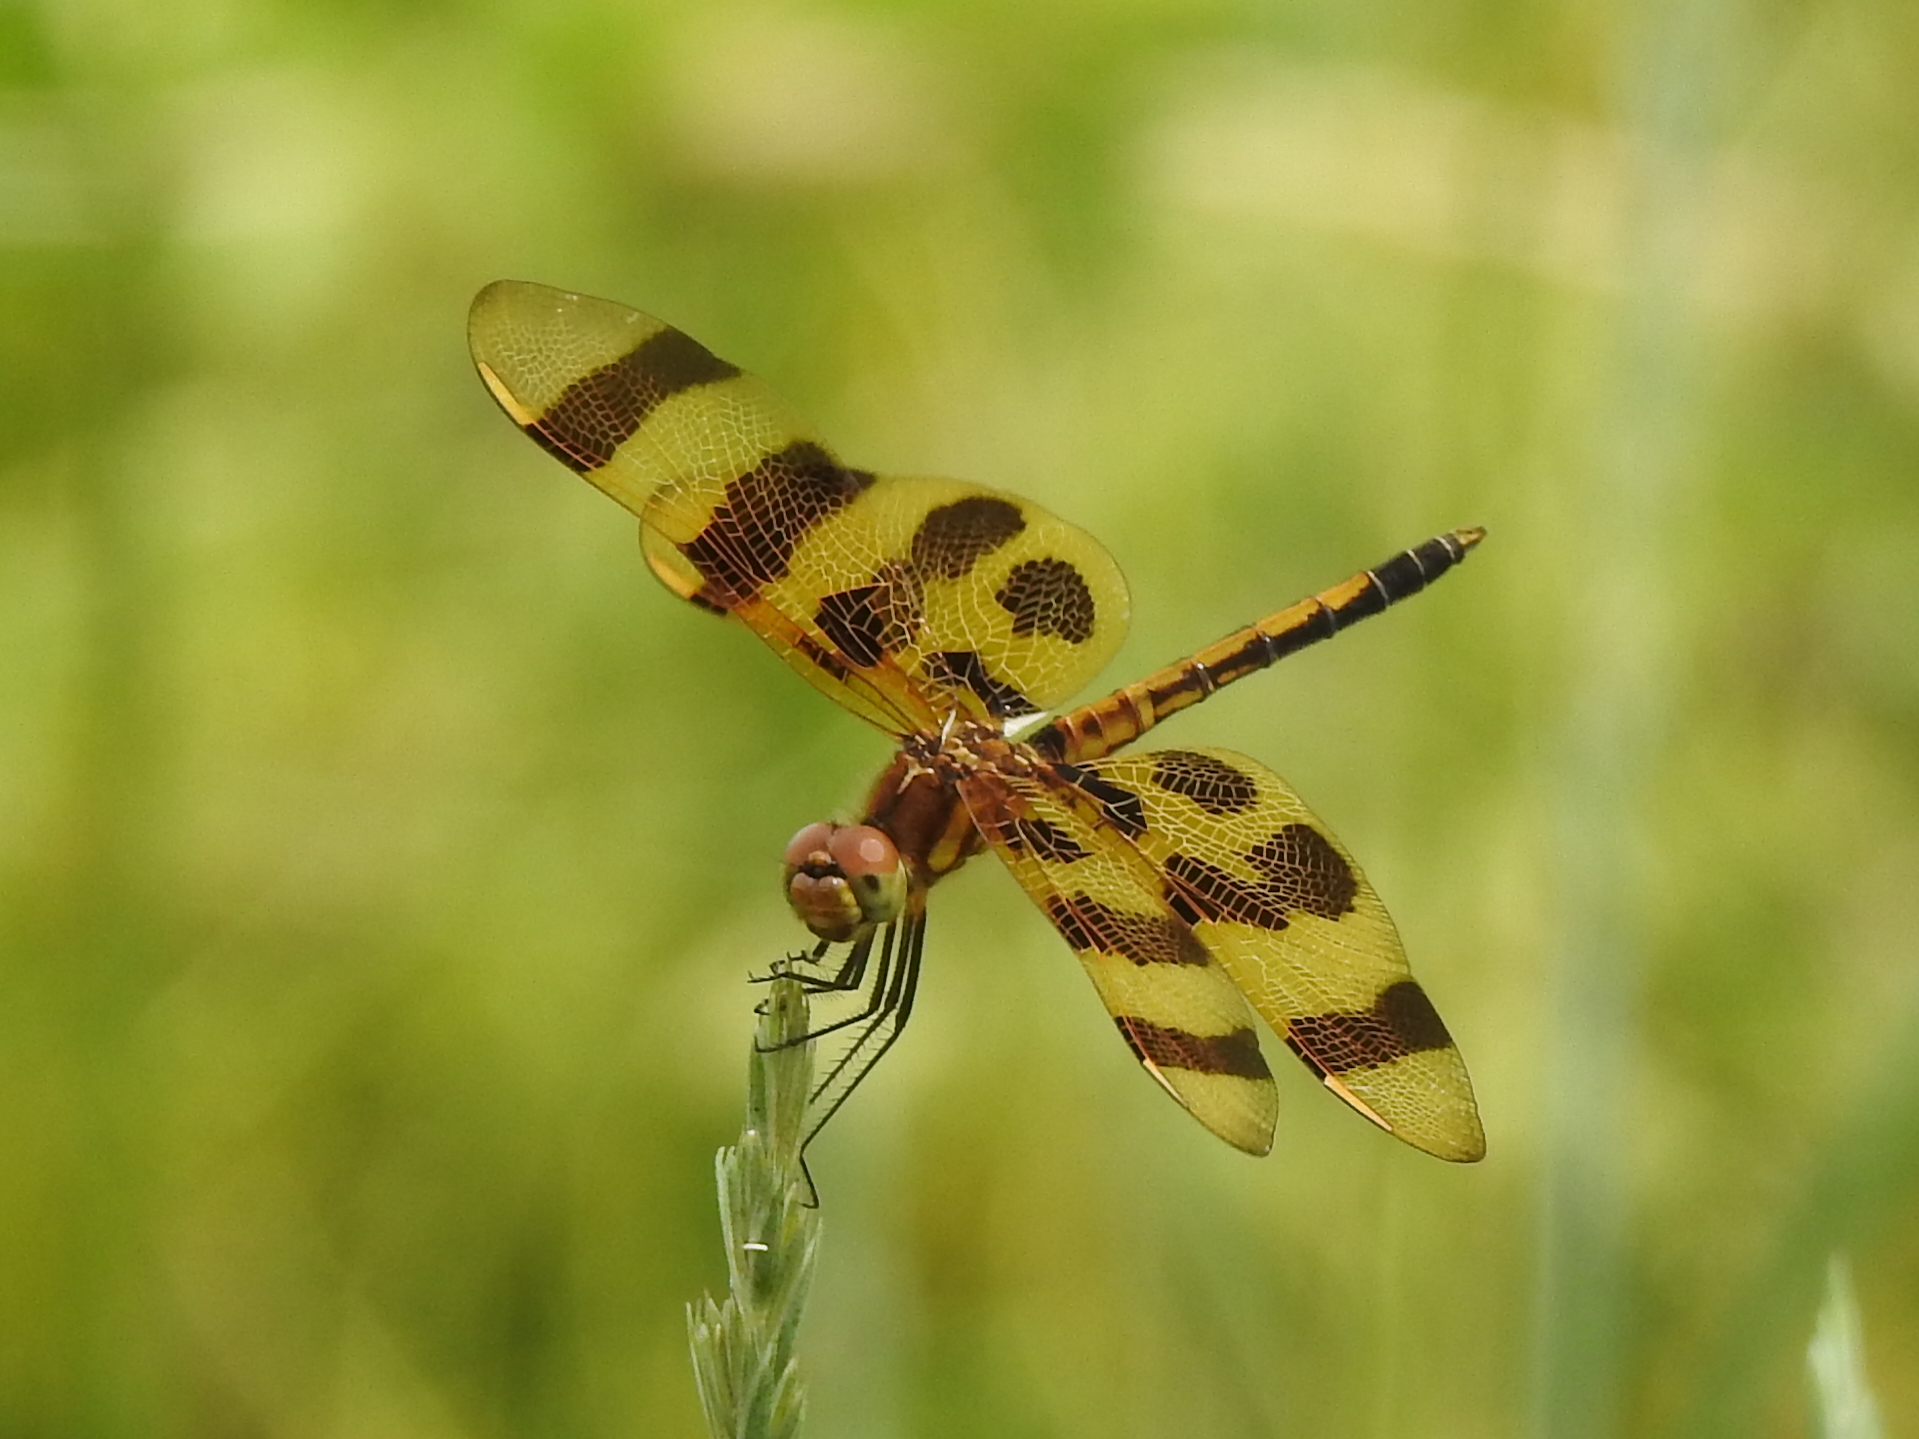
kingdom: Animalia
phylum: Arthropoda
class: Insecta
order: Odonata
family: Libellulidae
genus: Celithemis
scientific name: Celithemis eponina
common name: Halloween pennant
